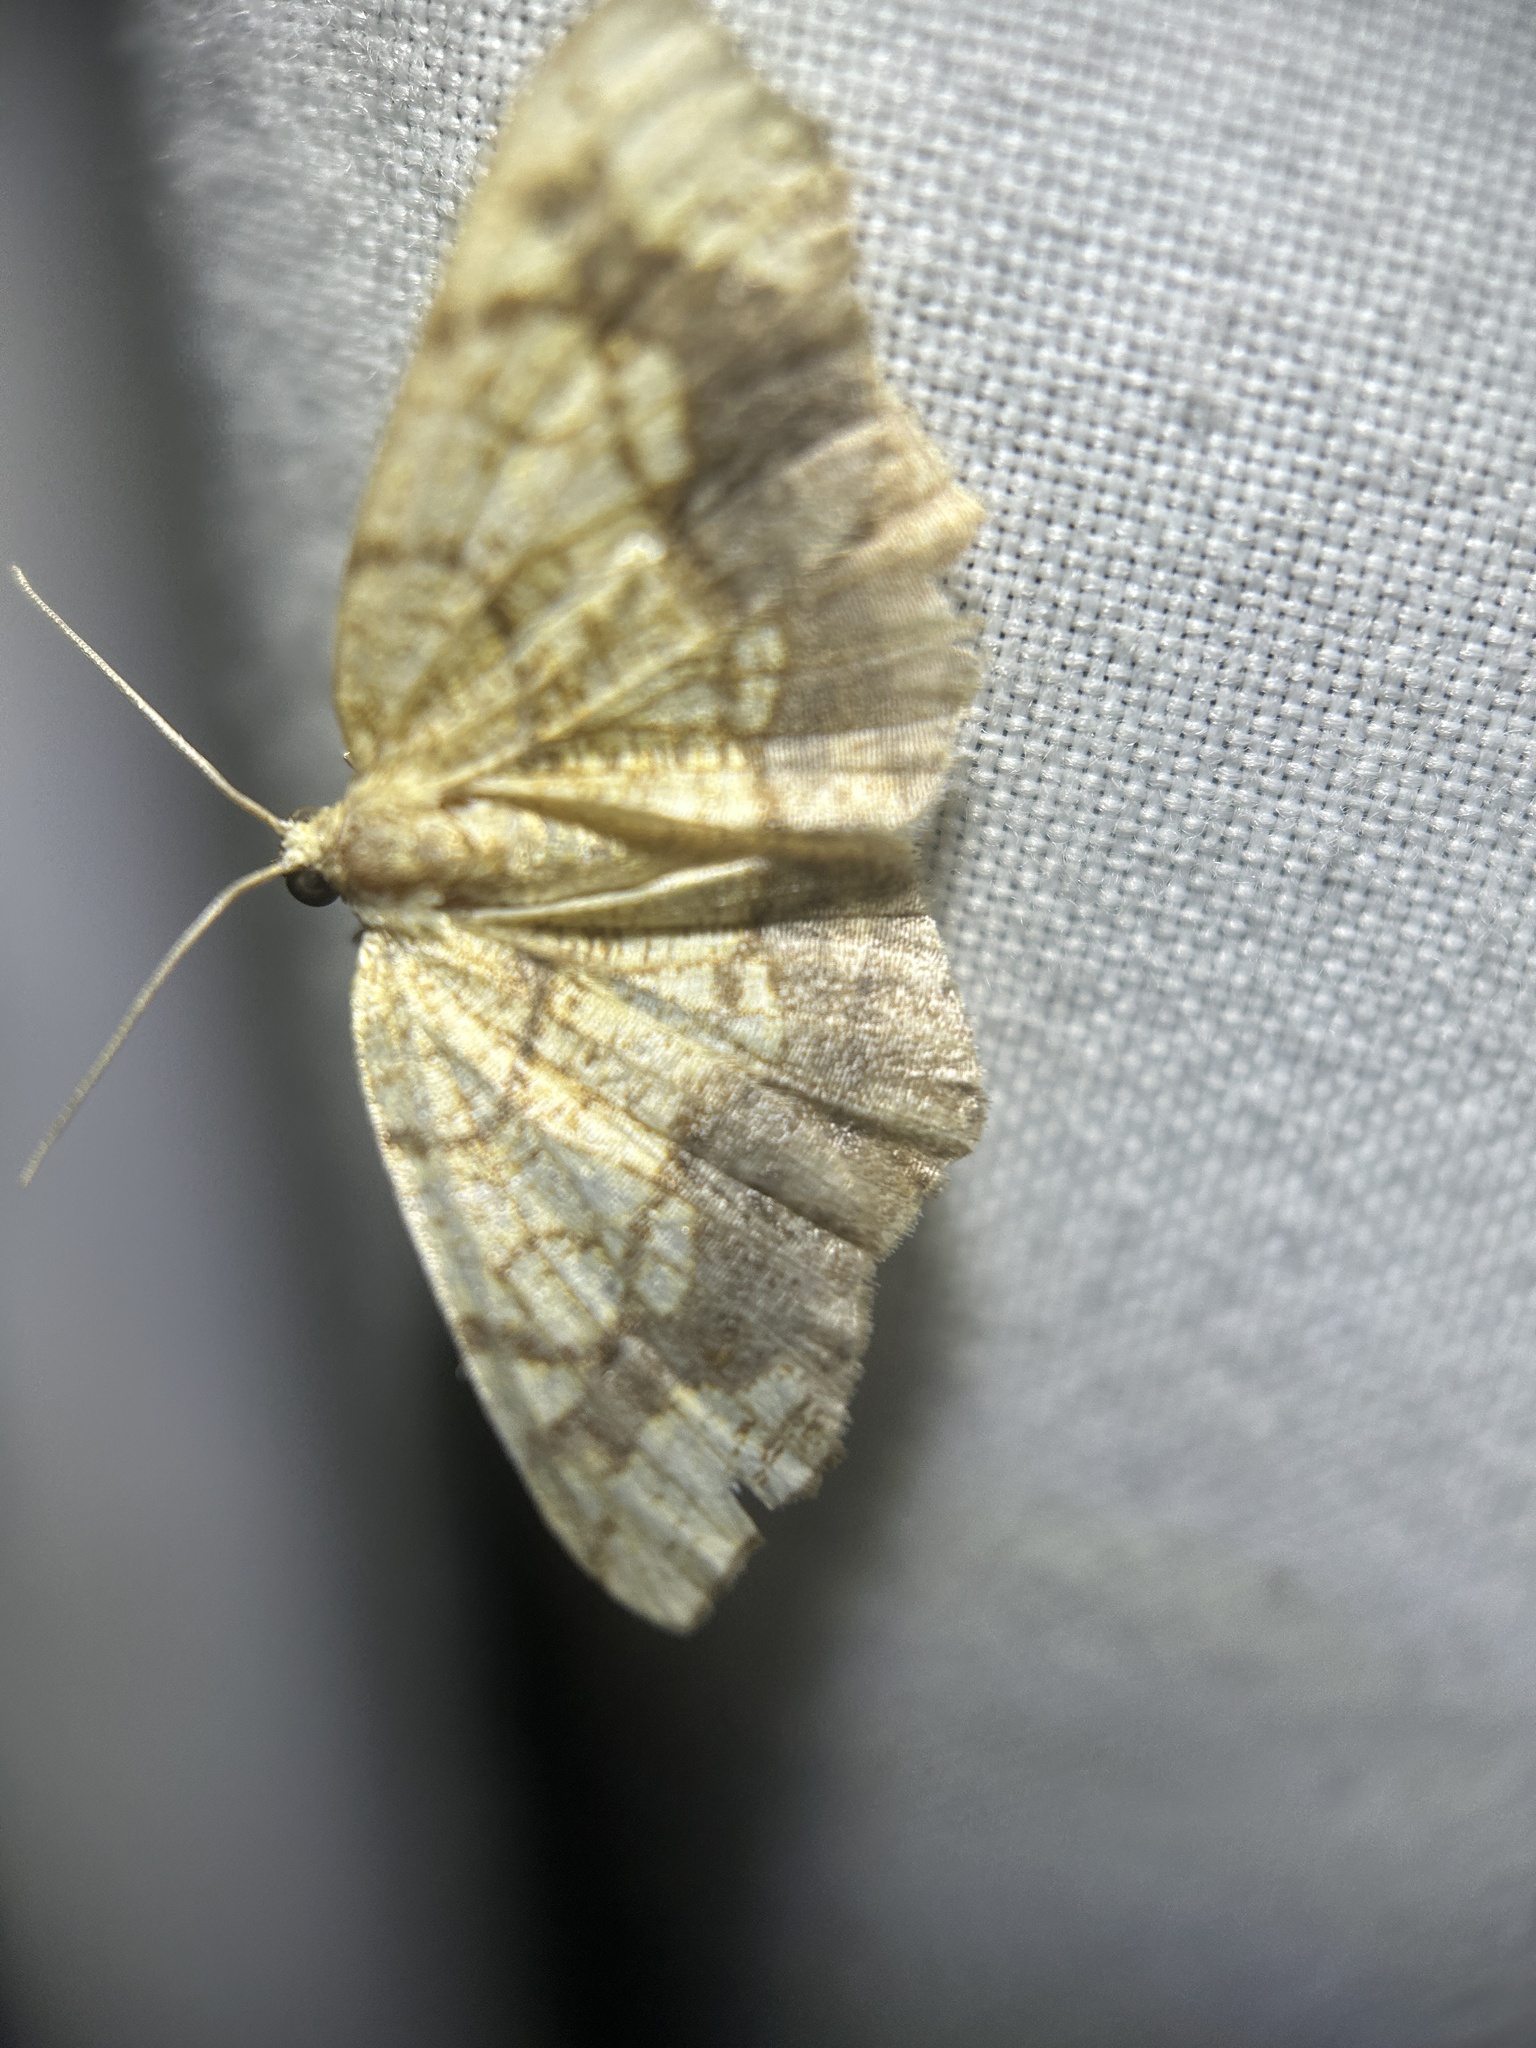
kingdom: Animalia
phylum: Arthropoda
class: Insecta
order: Lepidoptera
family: Geometridae
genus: Nematocampa
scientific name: Nematocampa resistaria
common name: Horned spanworm moth
